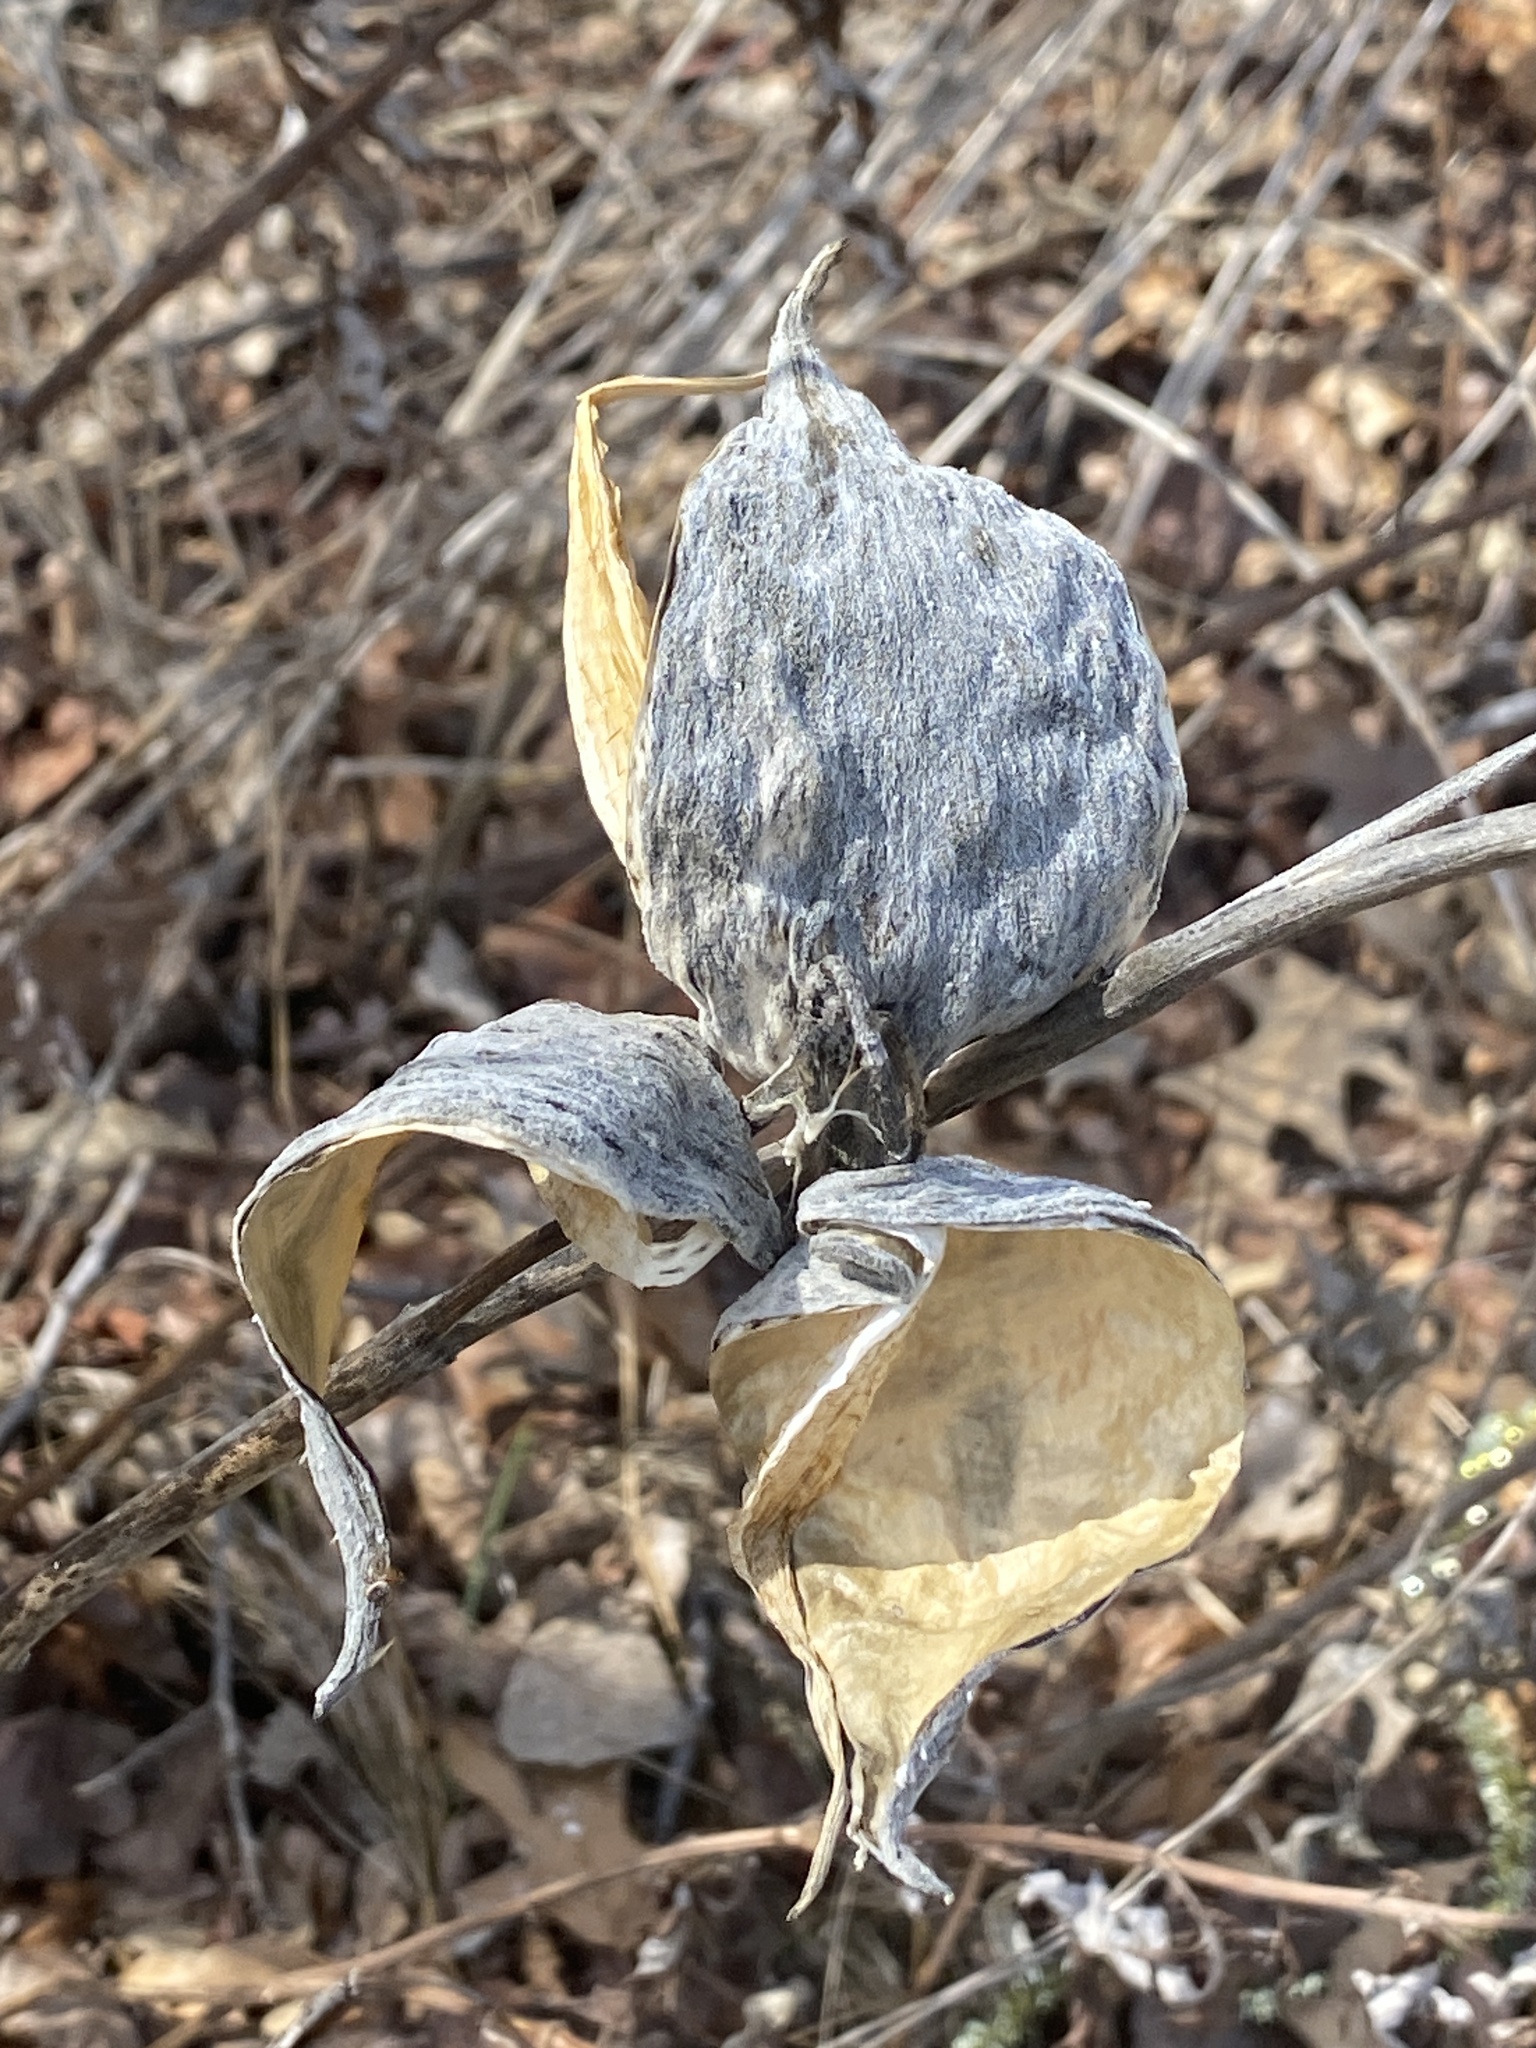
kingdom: Plantae
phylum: Tracheophyta
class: Magnoliopsida
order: Gentianales
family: Apocynaceae
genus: Asclepias
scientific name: Asclepias syriaca
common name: Common milkweed
